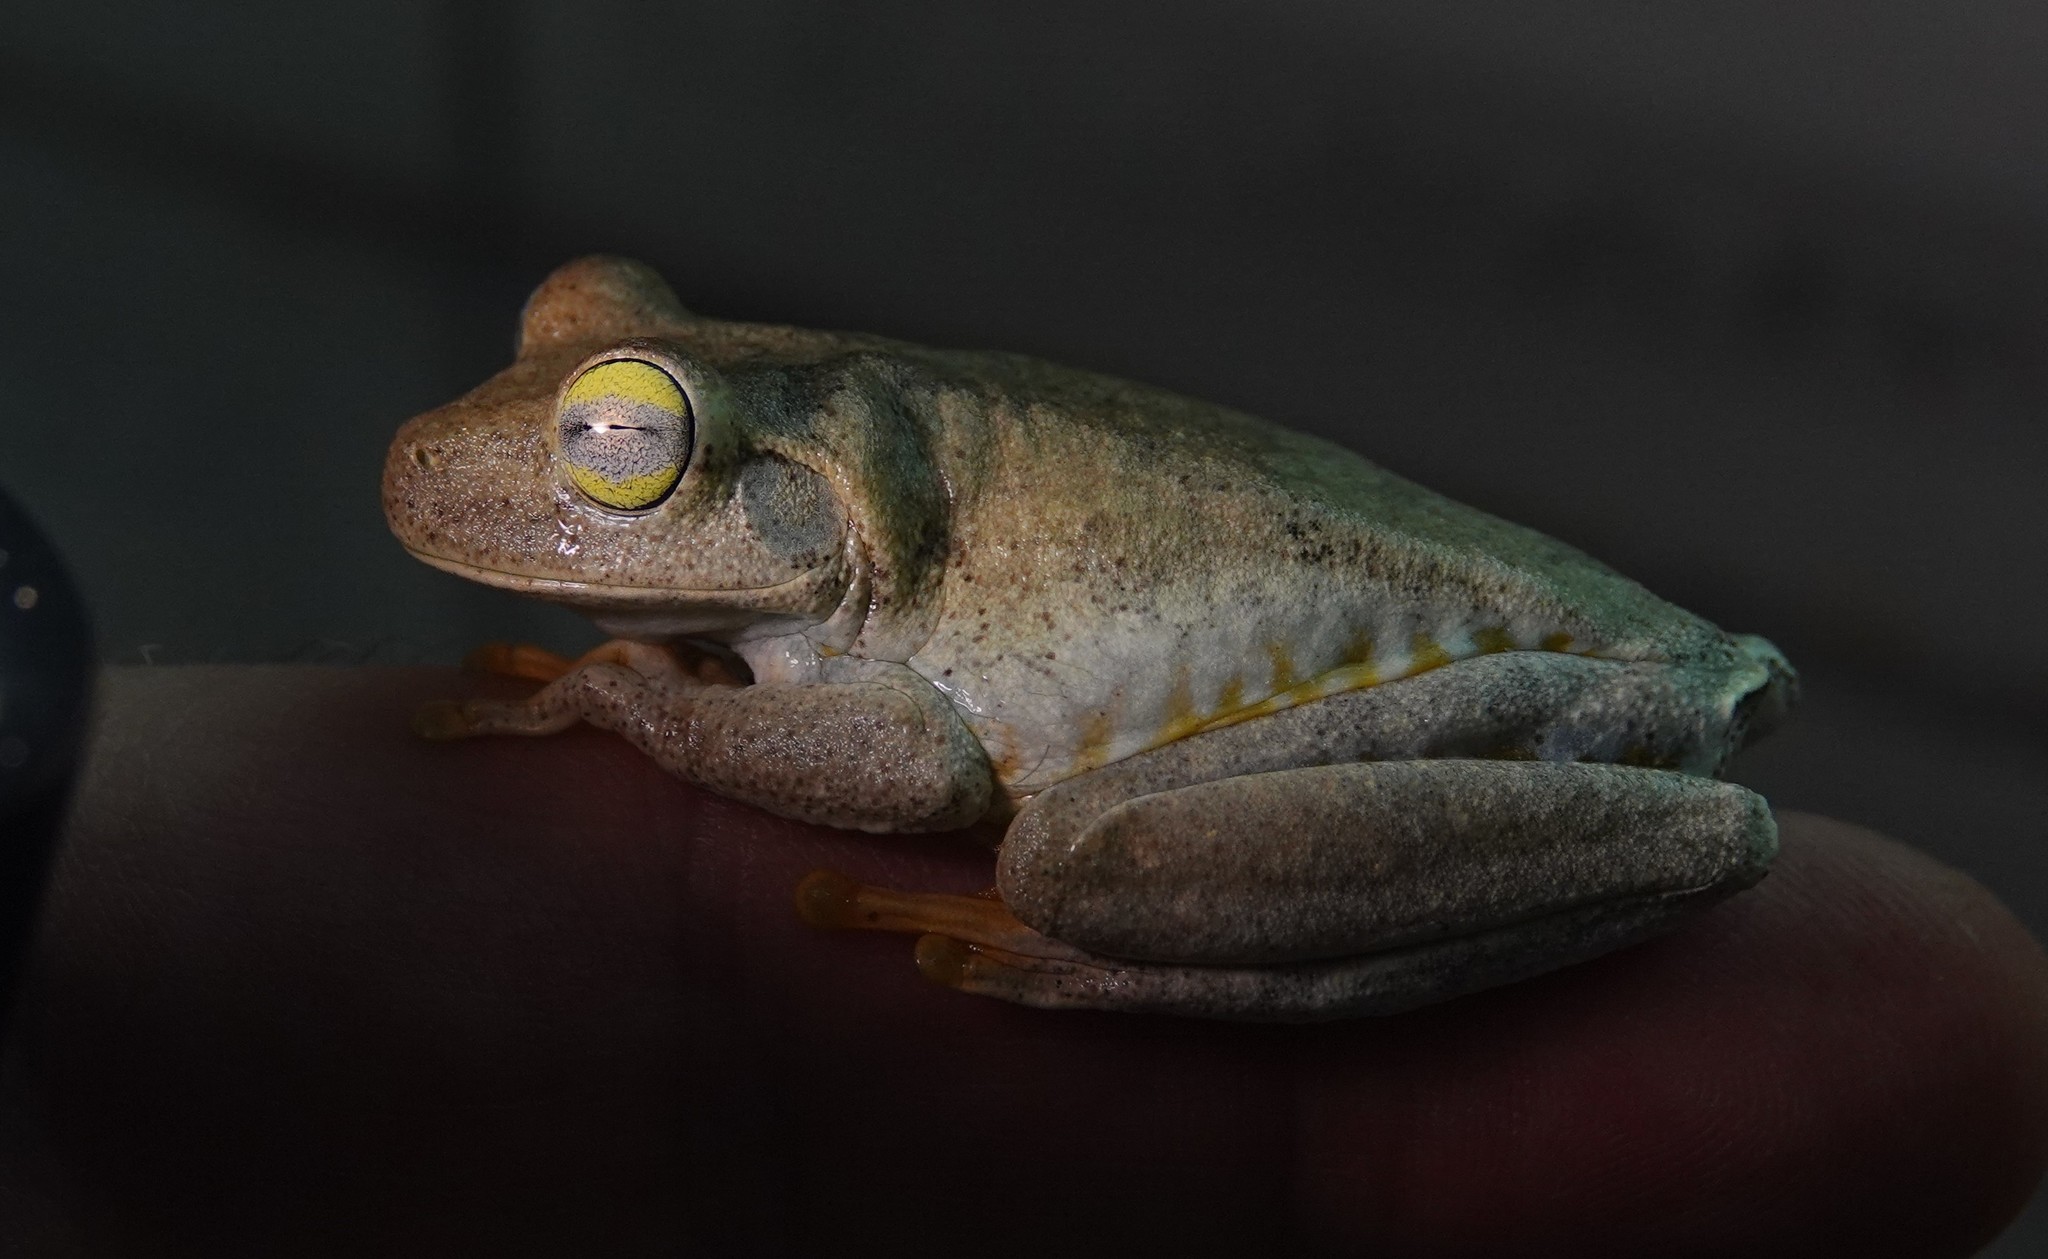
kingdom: Animalia
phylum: Chordata
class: Amphibia
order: Anura
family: Hylidae
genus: Boana
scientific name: Boana xerophylla
